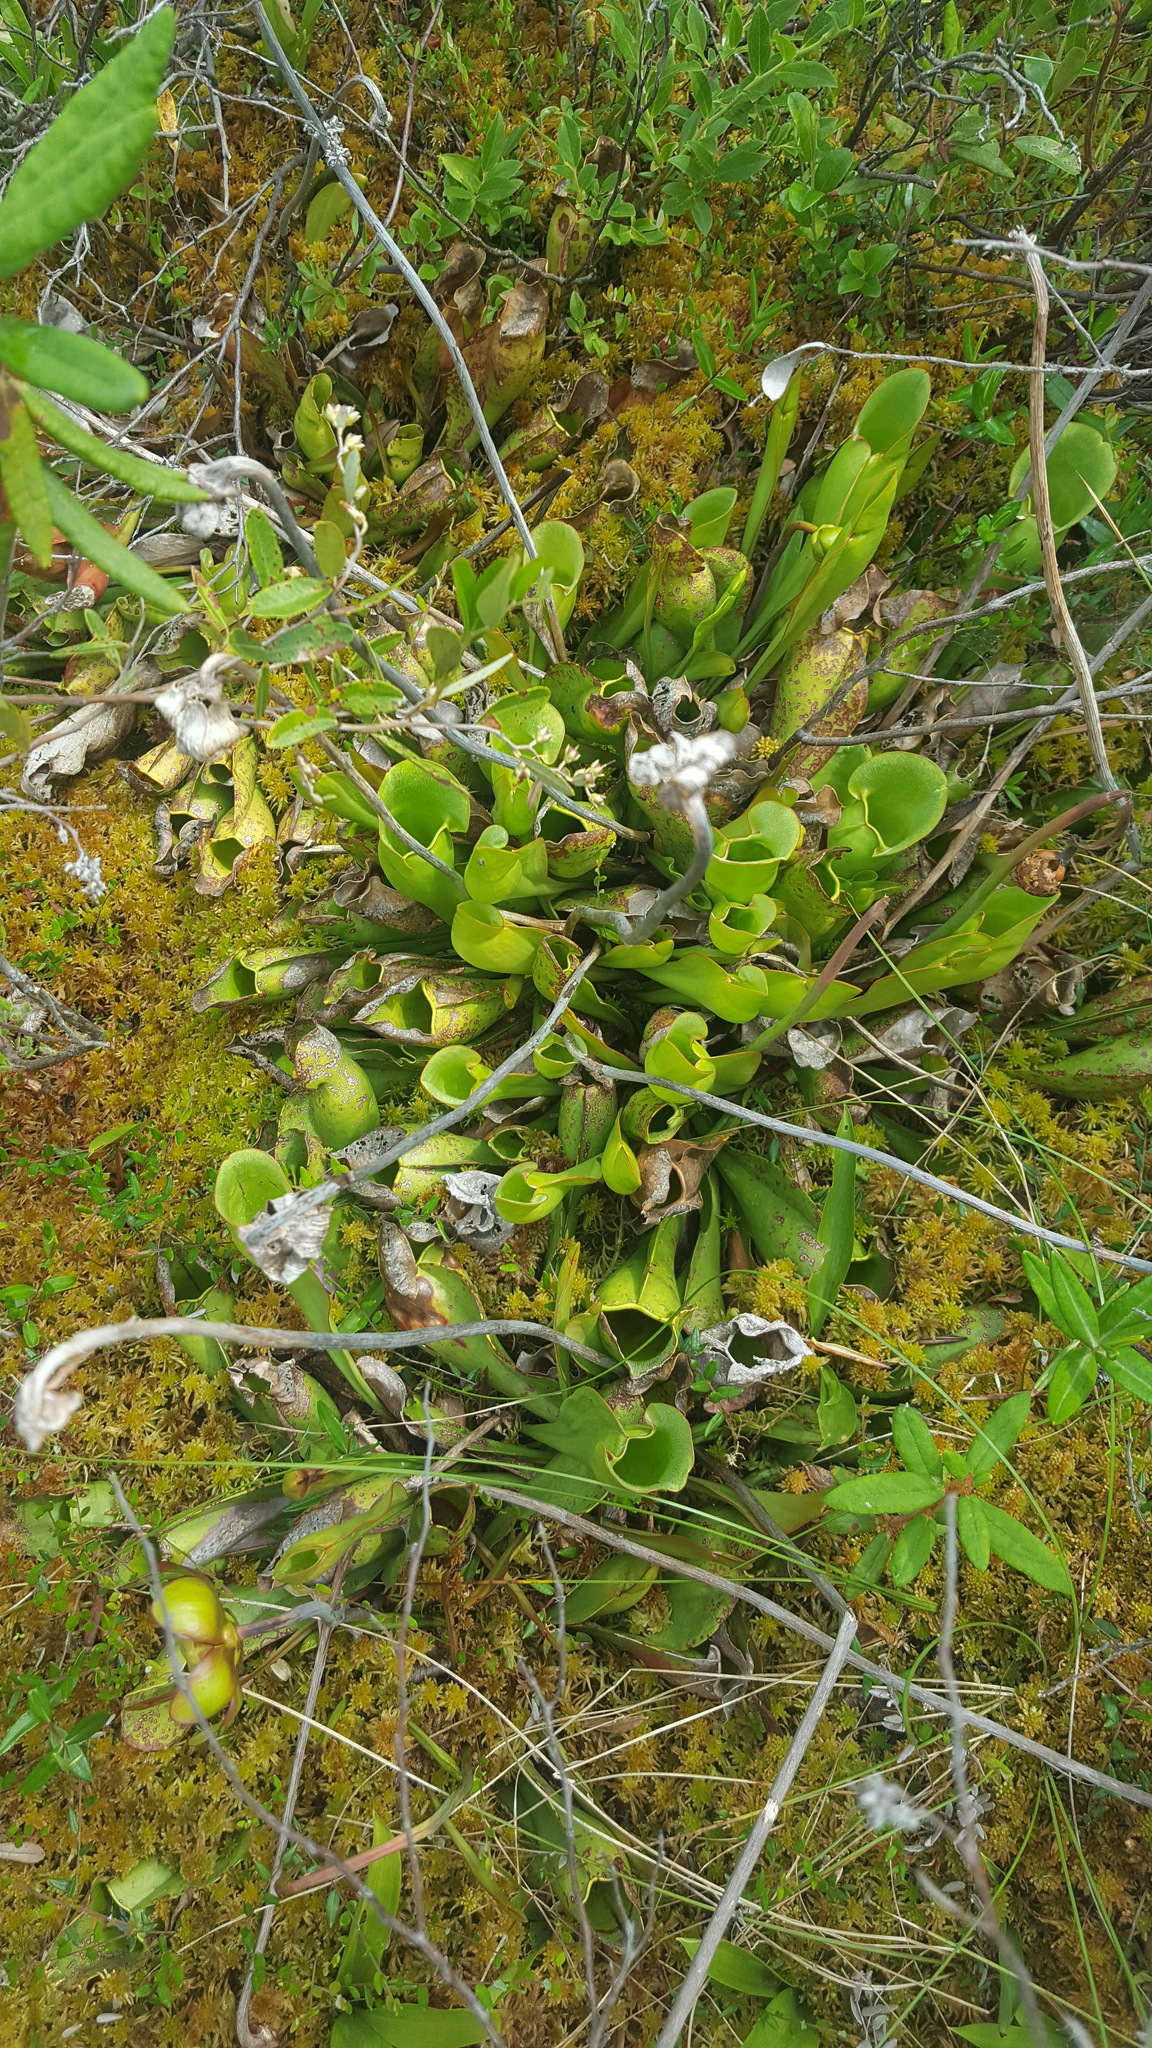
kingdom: Plantae
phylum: Tracheophyta
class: Magnoliopsida
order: Ericales
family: Sarraceniaceae
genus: Sarracenia
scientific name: Sarracenia purpurea
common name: Pitcherplant
